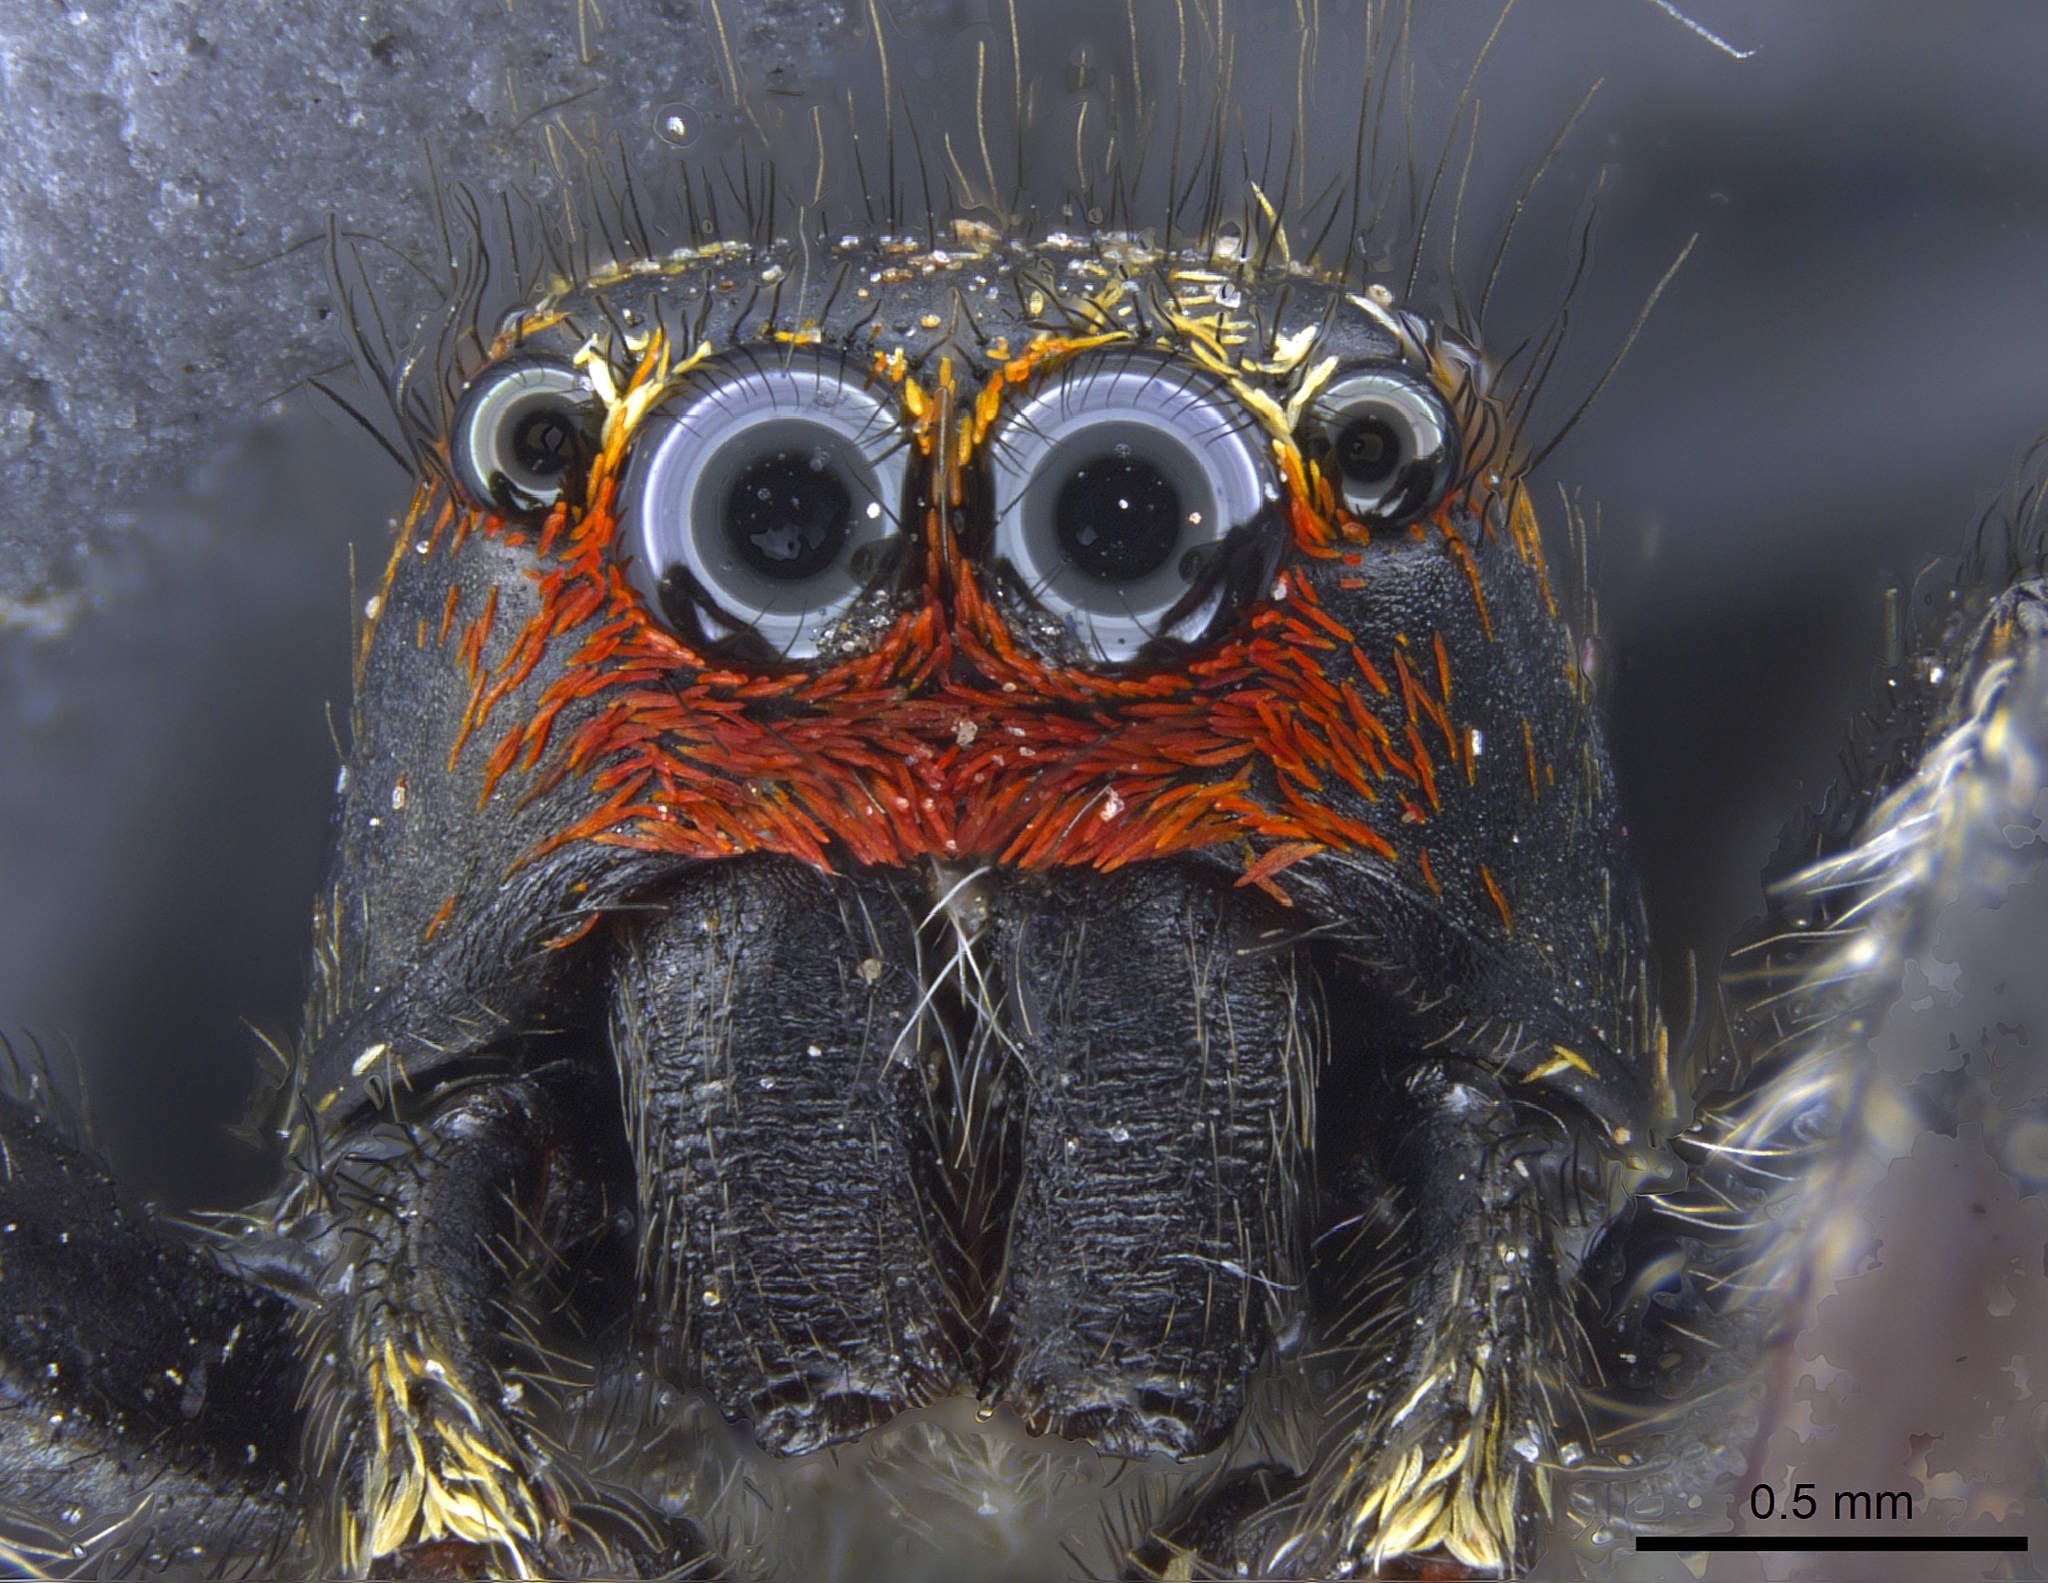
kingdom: Animalia
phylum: Arthropoda
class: Arachnida
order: Araneae
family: Salticidae
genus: Pellenes
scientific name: Pellenes ignifrons
